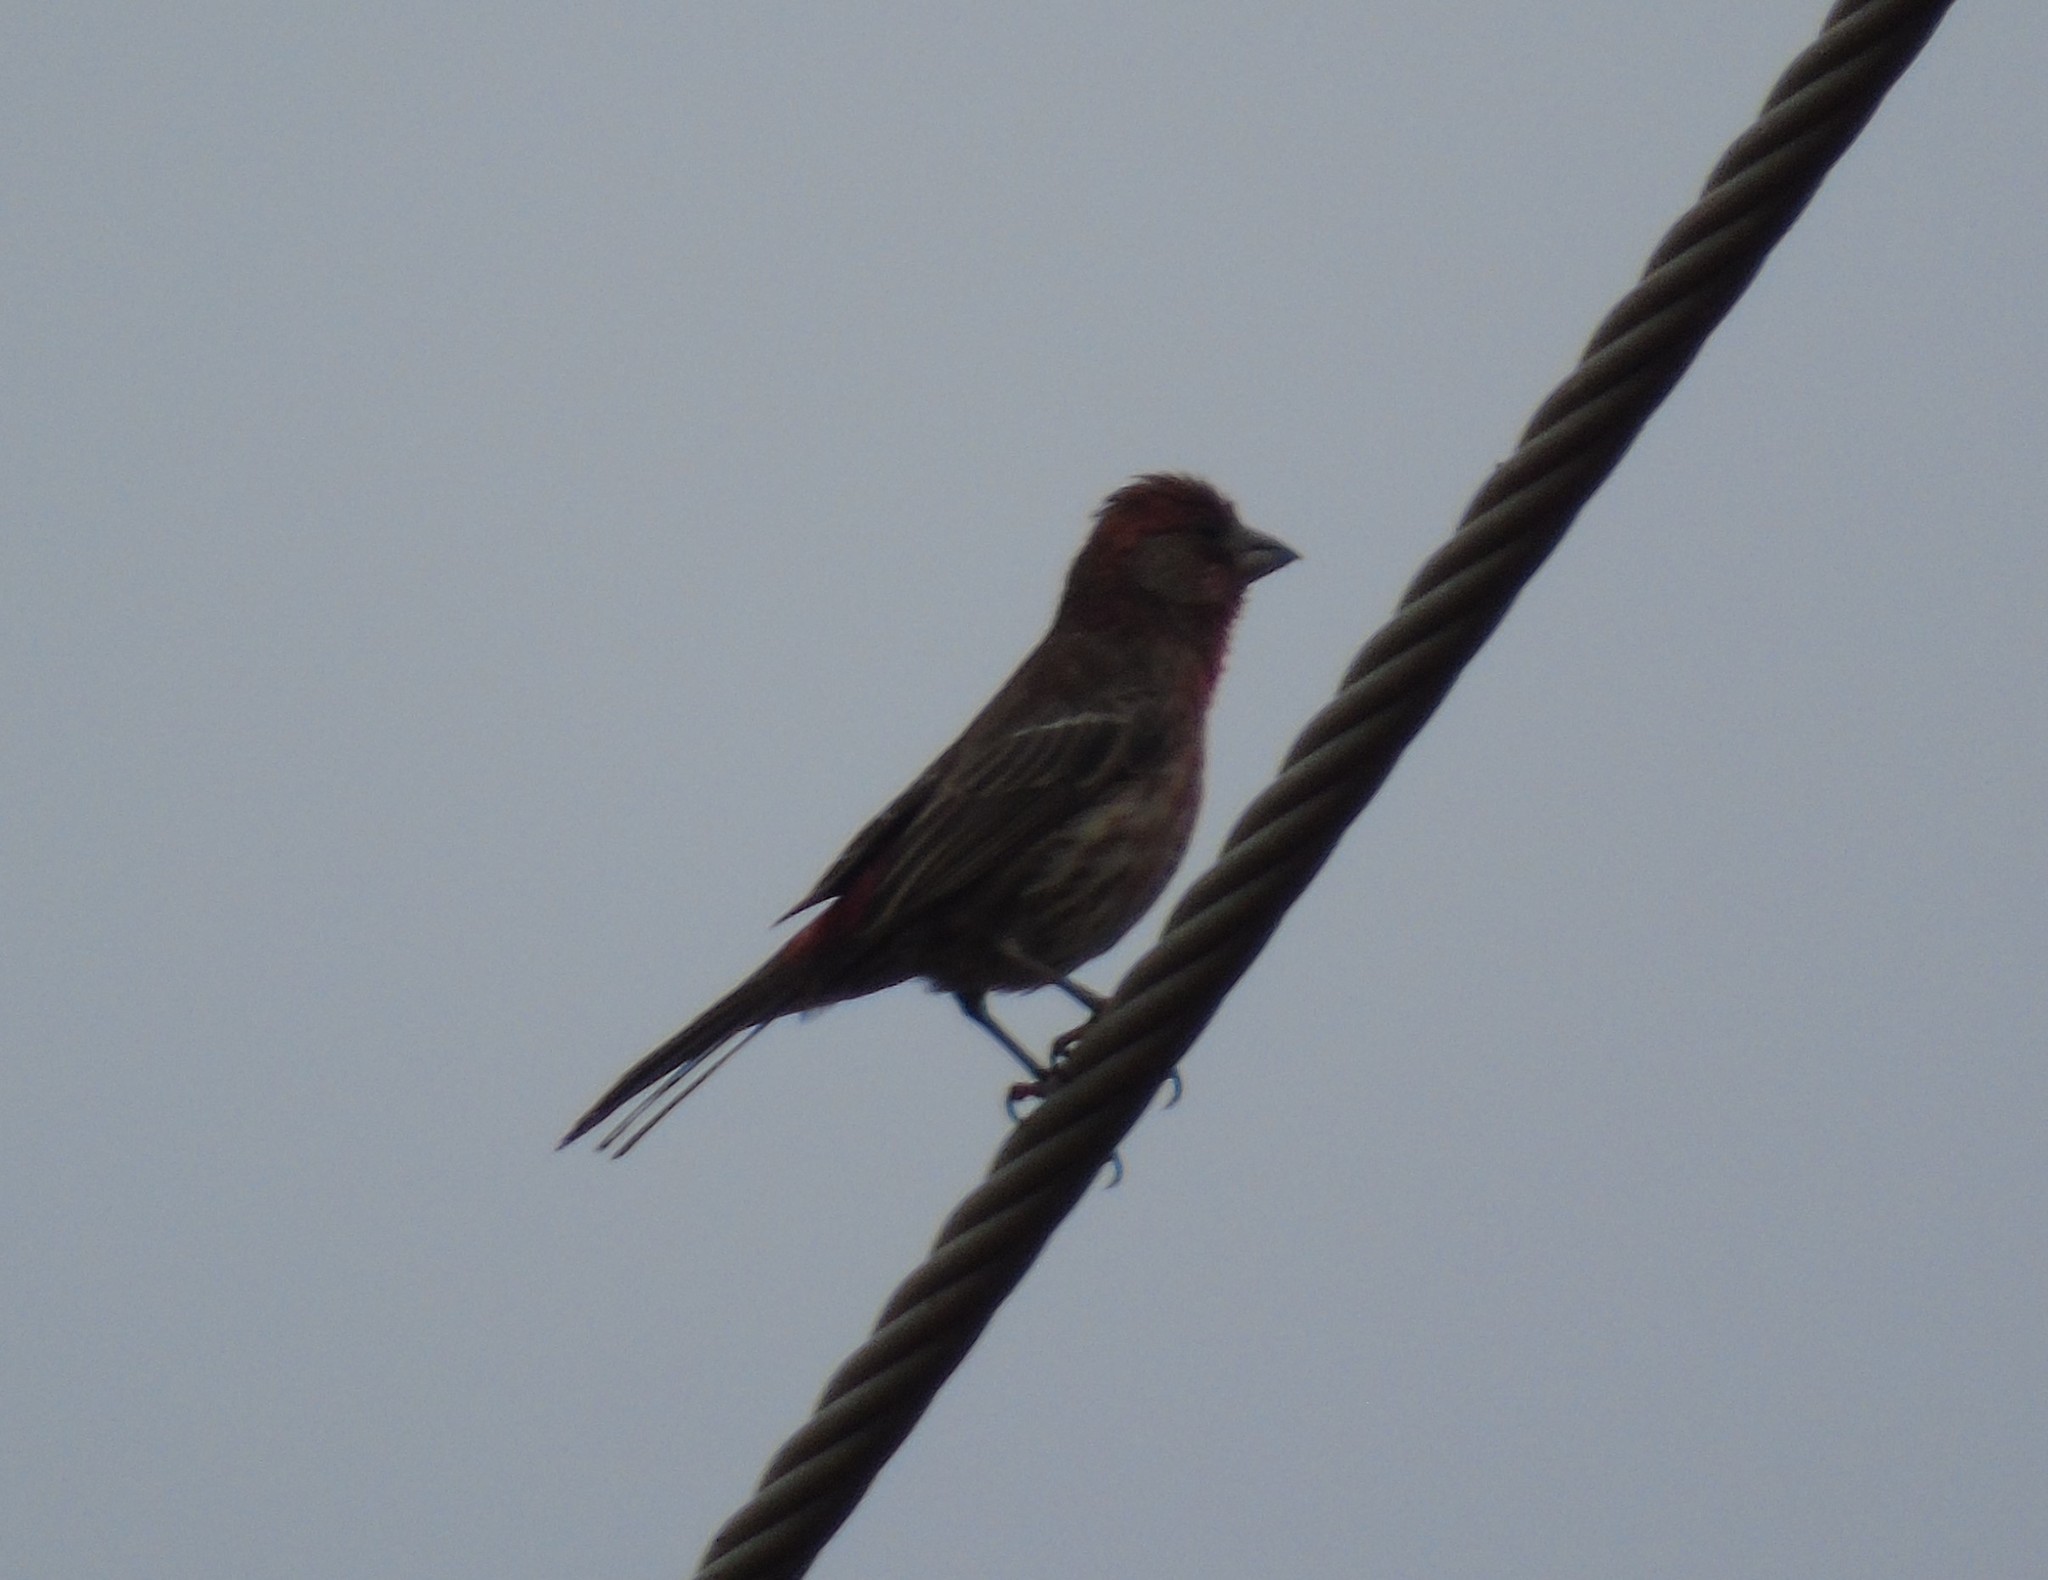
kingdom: Animalia
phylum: Chordata
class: Aves
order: Passeriformes
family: Fringillidae
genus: Haemorhous
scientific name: Haemorhous mexicanus
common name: House finch
